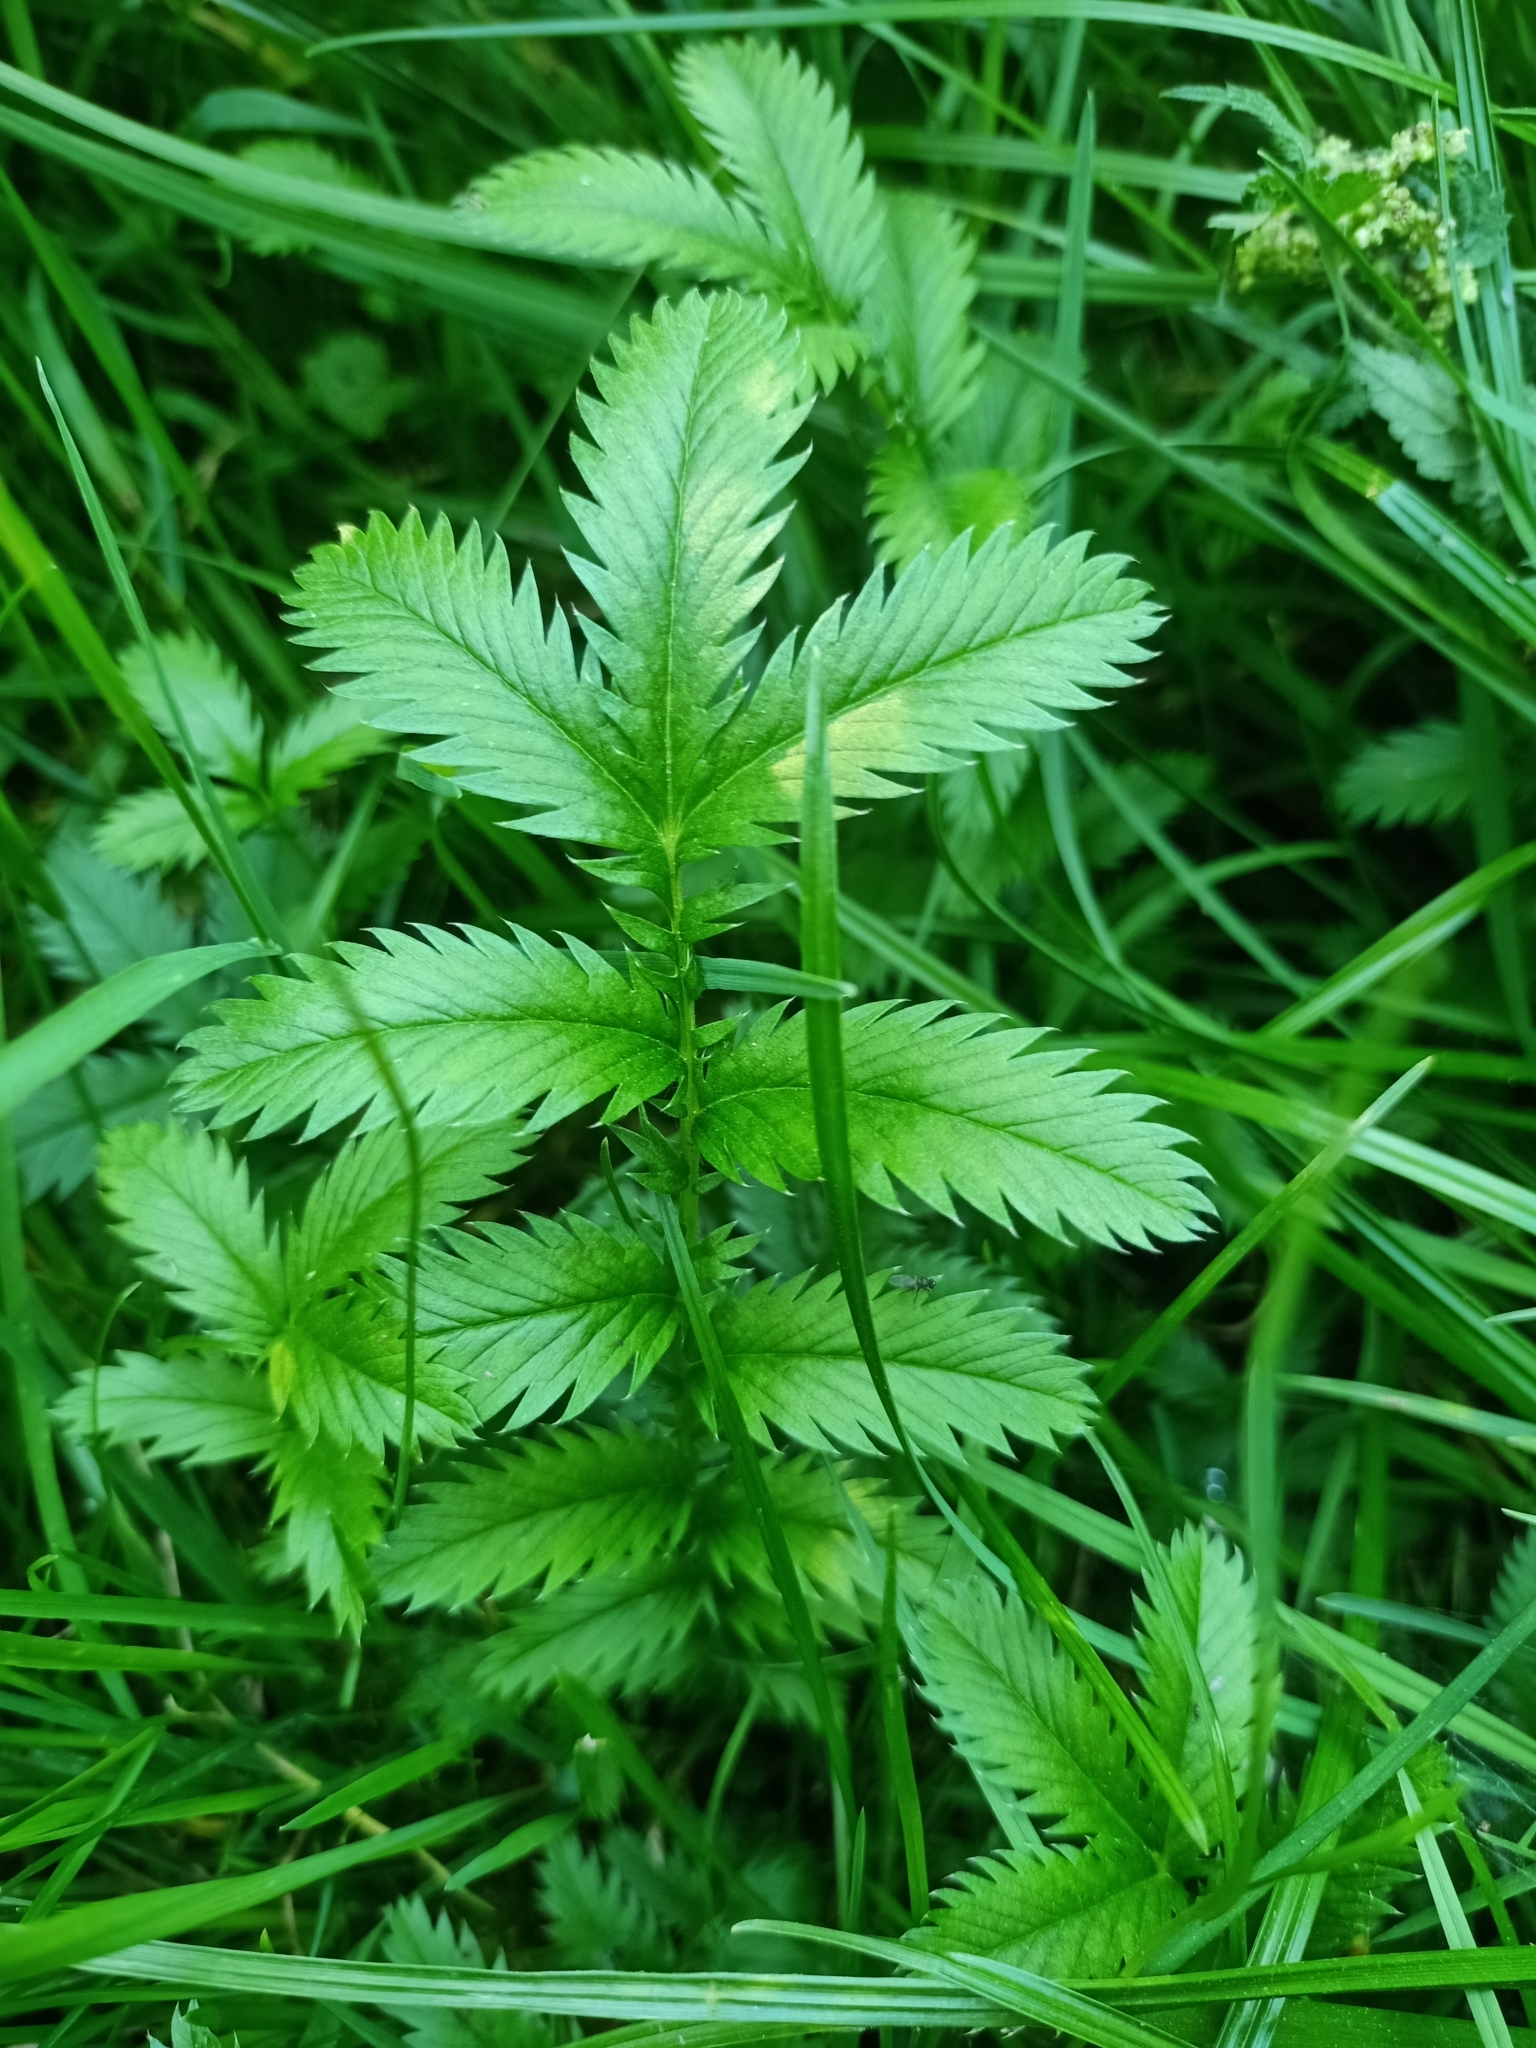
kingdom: Plantae
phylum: Tracheophyta
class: Magnoliopsida
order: Rosales
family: Rosaceae
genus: Argentina
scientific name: Argentina anserina
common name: Common silverweed
